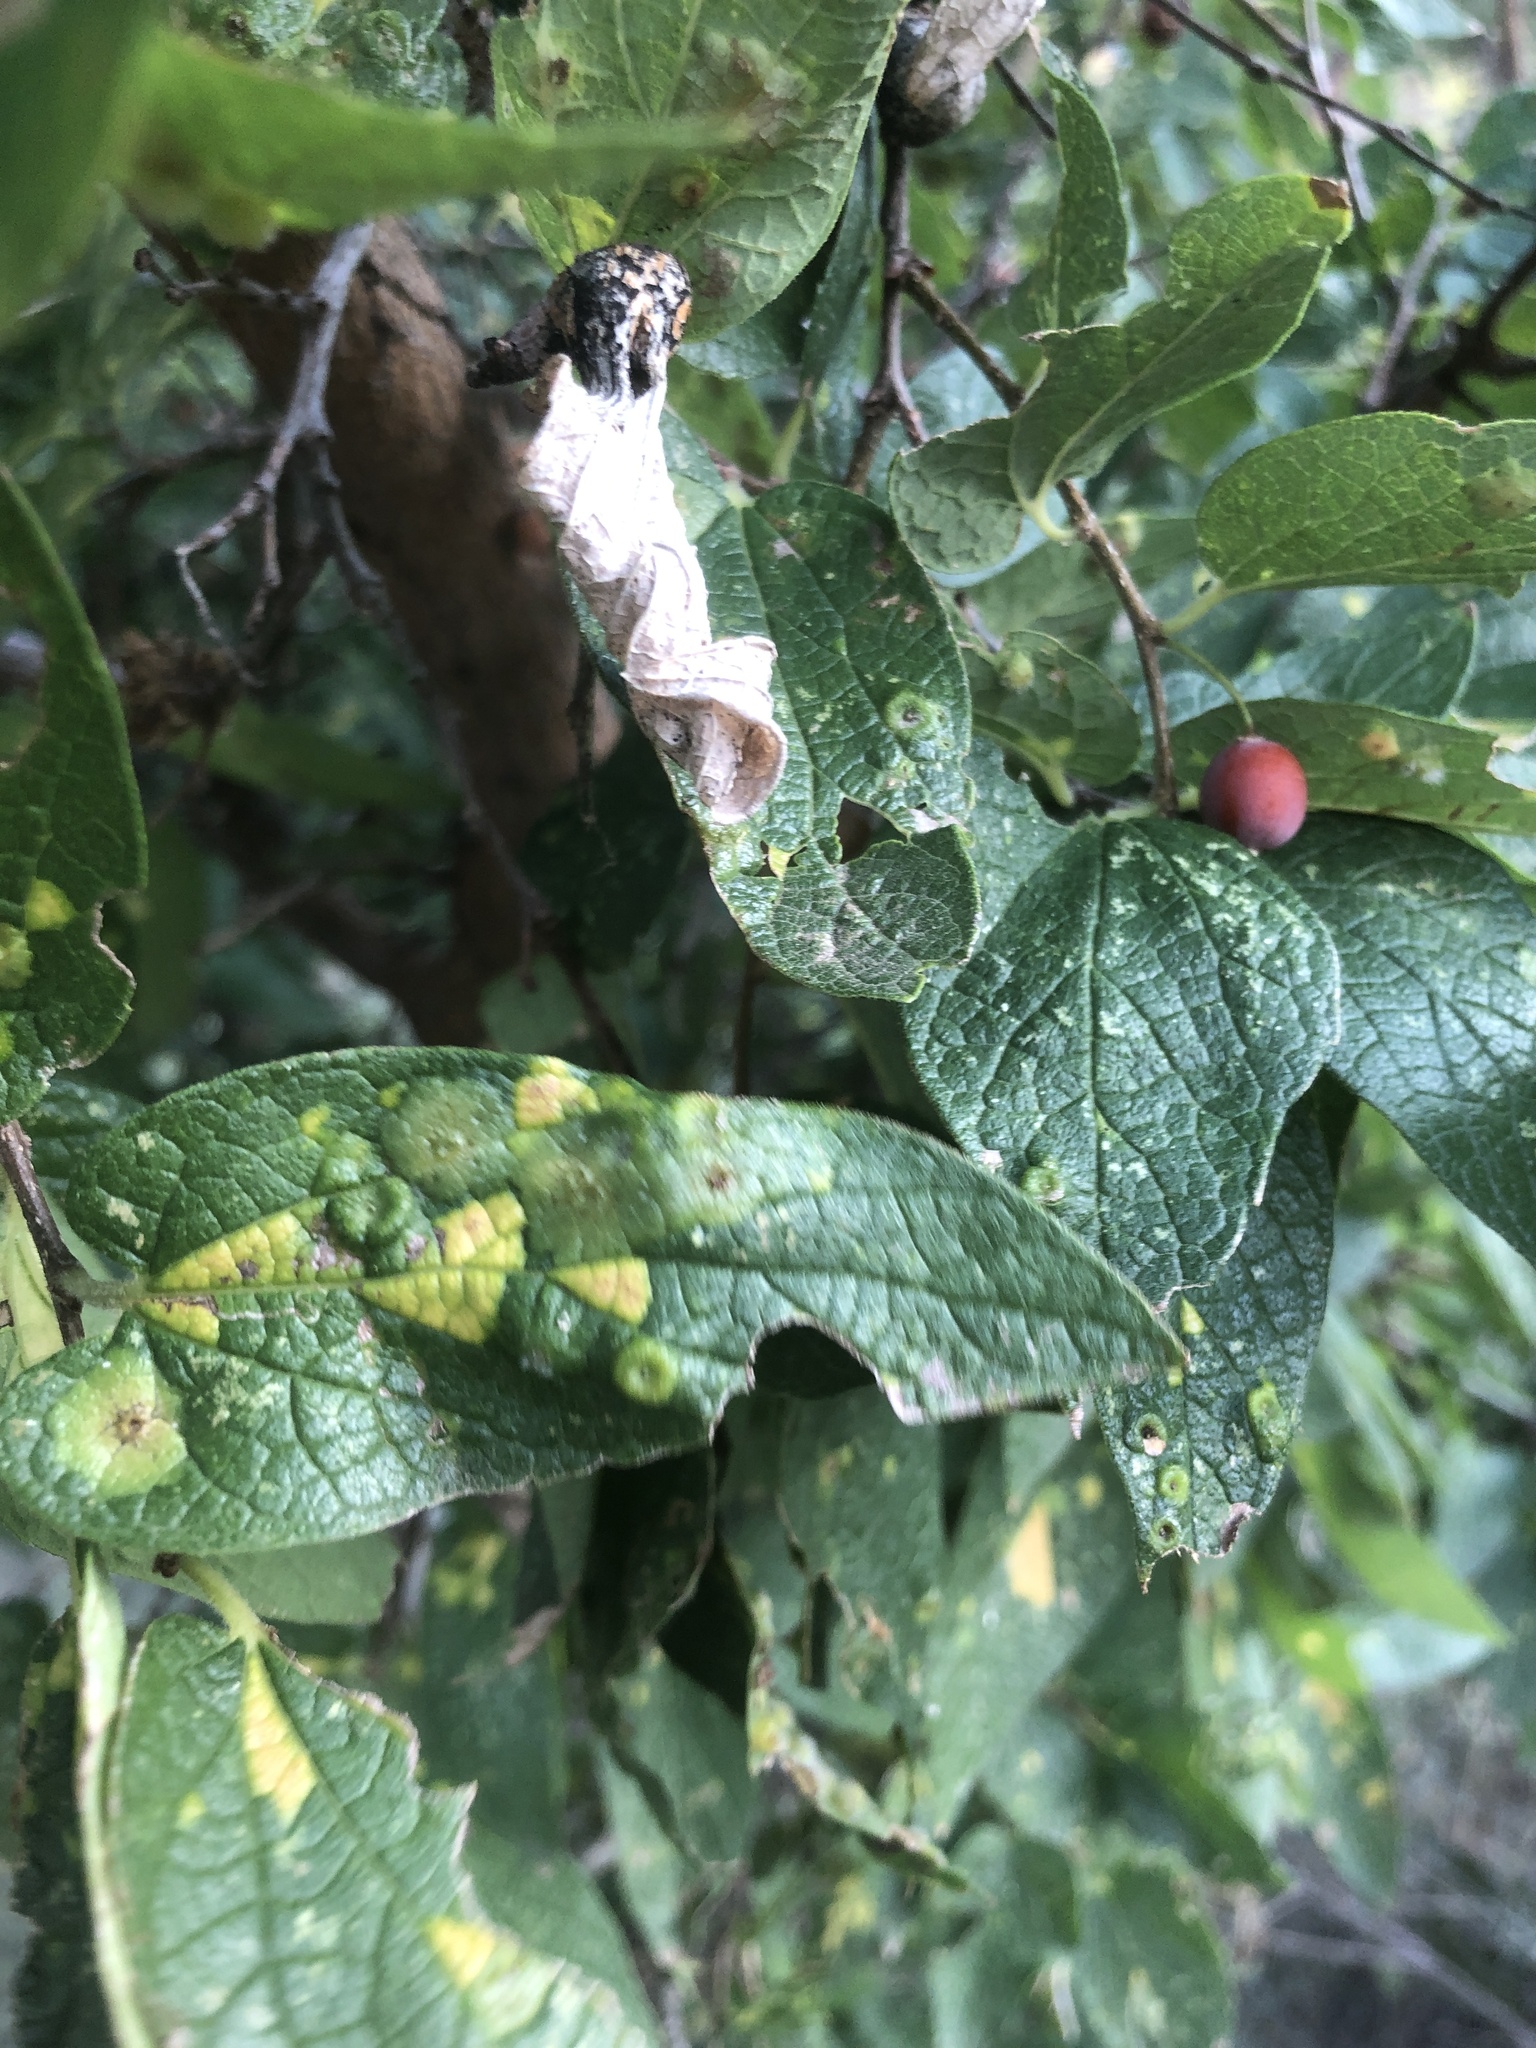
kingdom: Plantae
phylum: Tracheophyta
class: Magnoliopsida
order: Rosales
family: Cannabaceae
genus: Celtis
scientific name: Celtis reticulata
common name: Netleaf hackberry
